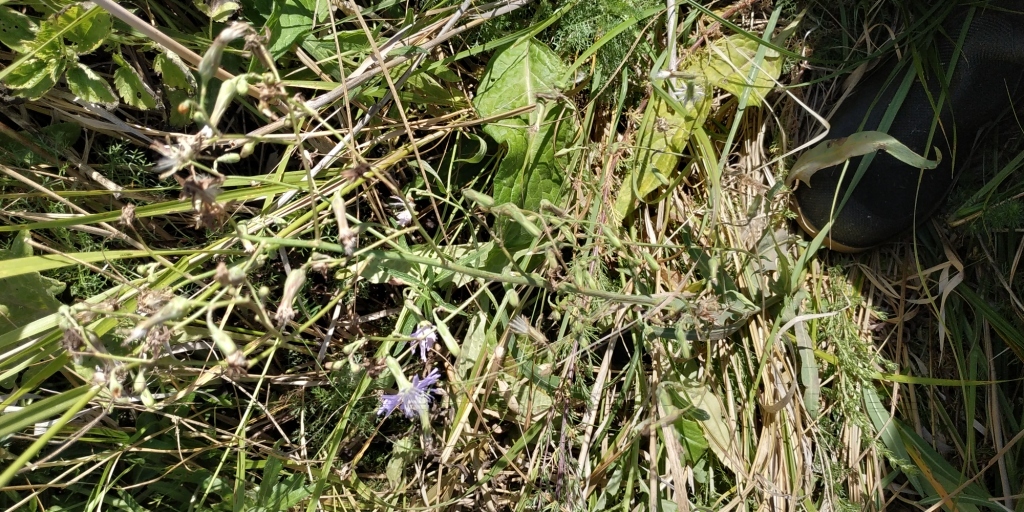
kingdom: Plantae
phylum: Tracheophyta
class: Magnoliopsida
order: Asterales
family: Asteraceae
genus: Lactuca
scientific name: Lactuca tatarica
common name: Blue lettuce
